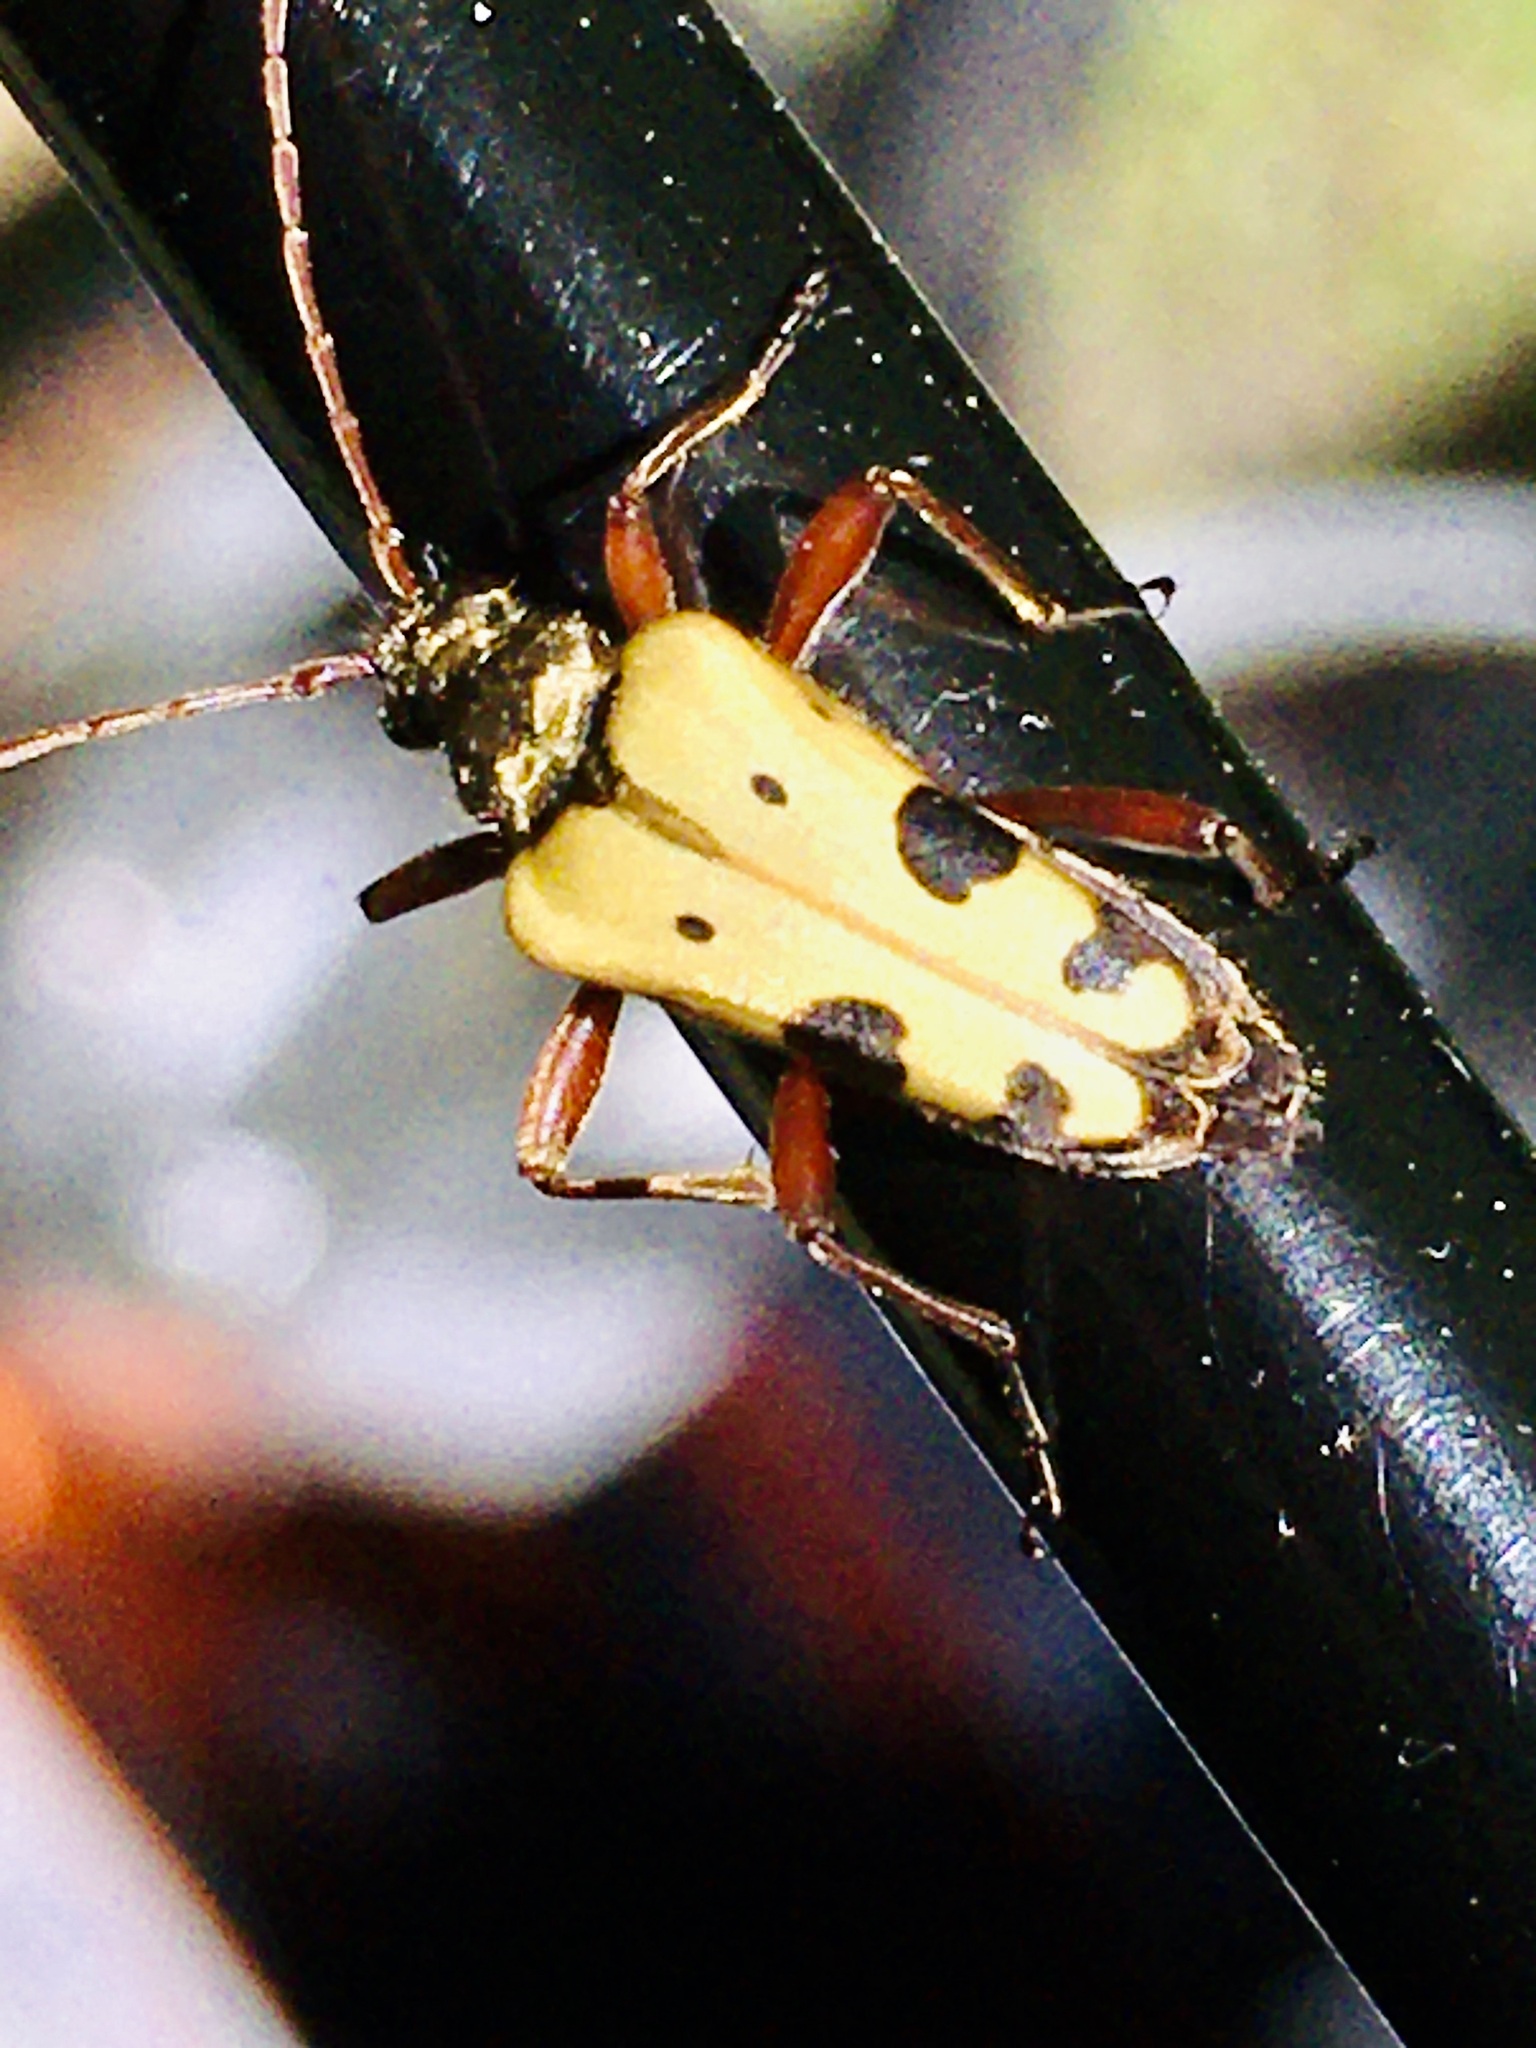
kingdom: Animalia
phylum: Arthropoda
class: Insecta
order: Coleoptera
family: Cerambycidae
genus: Evodinus
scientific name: Evodinus monticola
